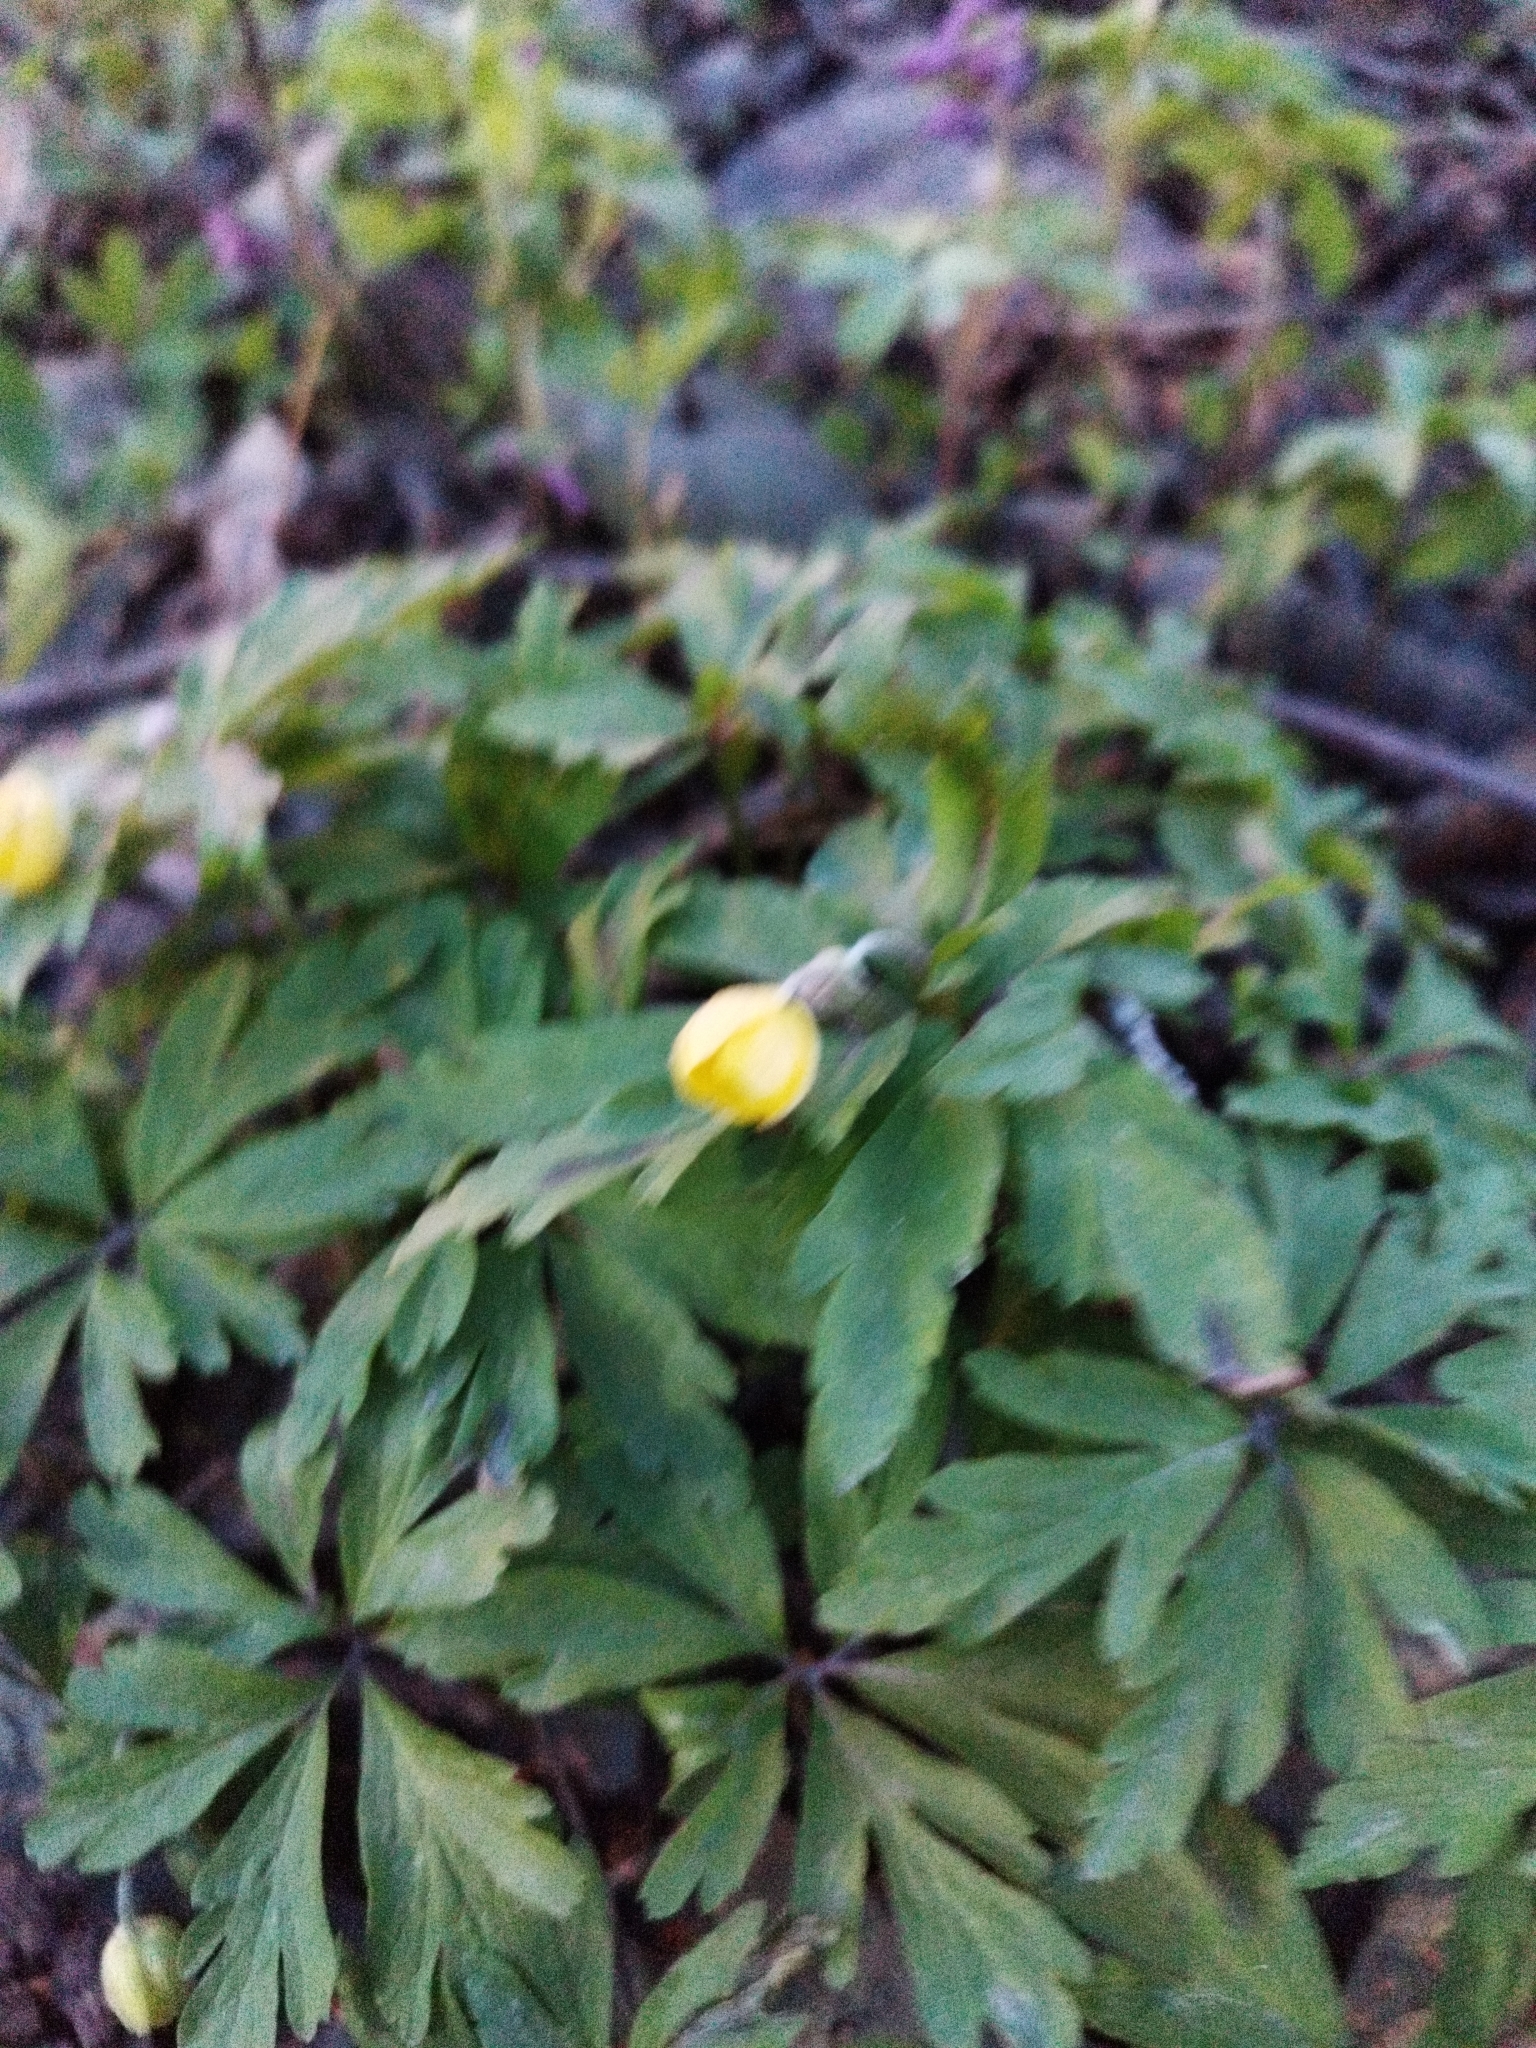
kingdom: Plantae
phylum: Tracheophyta
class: Magnoliopsida
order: Ranunculales
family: Ranunculaceae
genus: Anemone
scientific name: Anemone ranunculoides
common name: Yellow anemone
